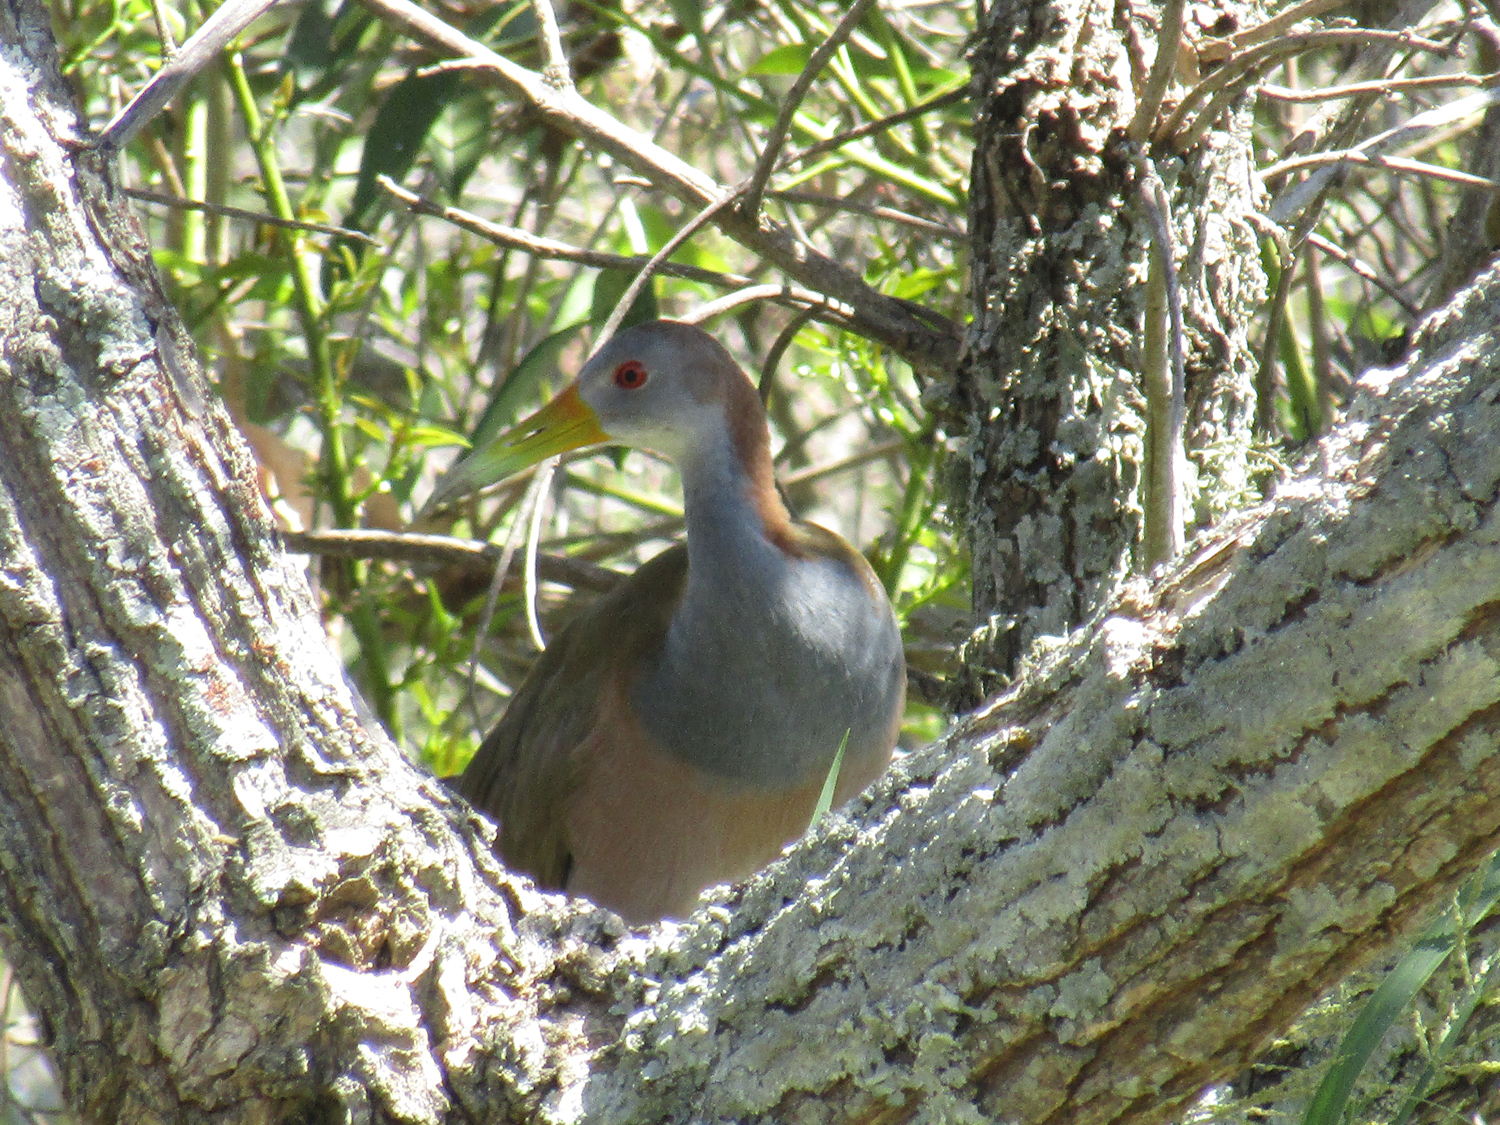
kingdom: Animalia
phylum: Chordata
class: Aves
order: Gruiformes
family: Rallidae
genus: Aramides
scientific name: Aramides ypecaha
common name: Giant wood rail
